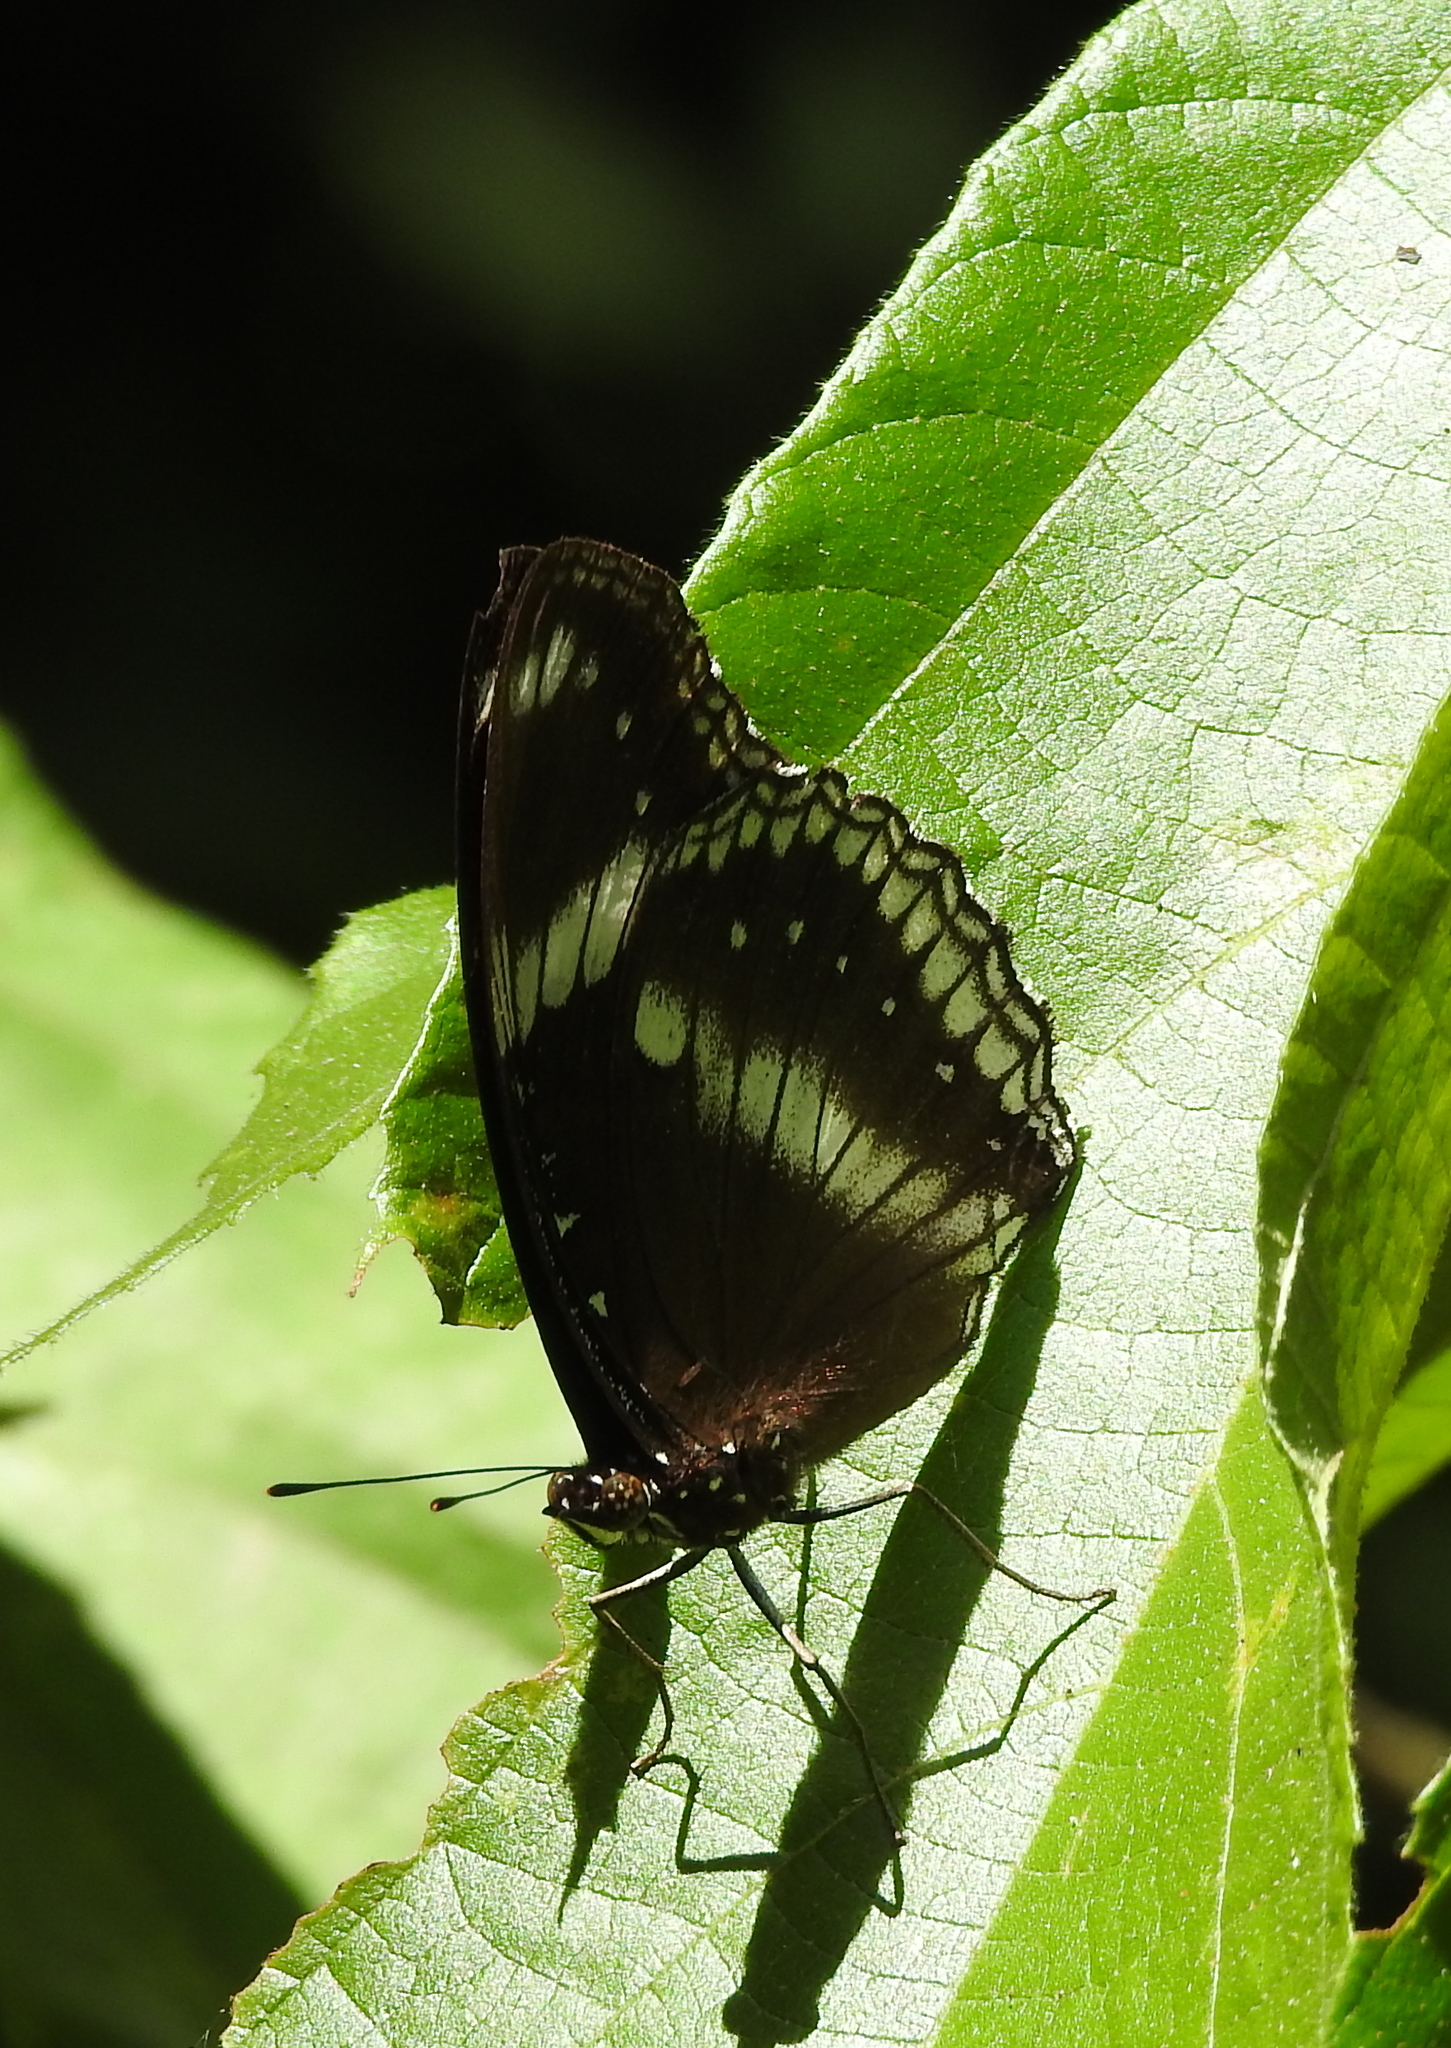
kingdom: Animalia
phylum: Arthropoda
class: Insecta
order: Lepidoptera
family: Nymphalidae
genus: Hypolimnas
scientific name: Hypolimnas bolina
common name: Great eggfly
